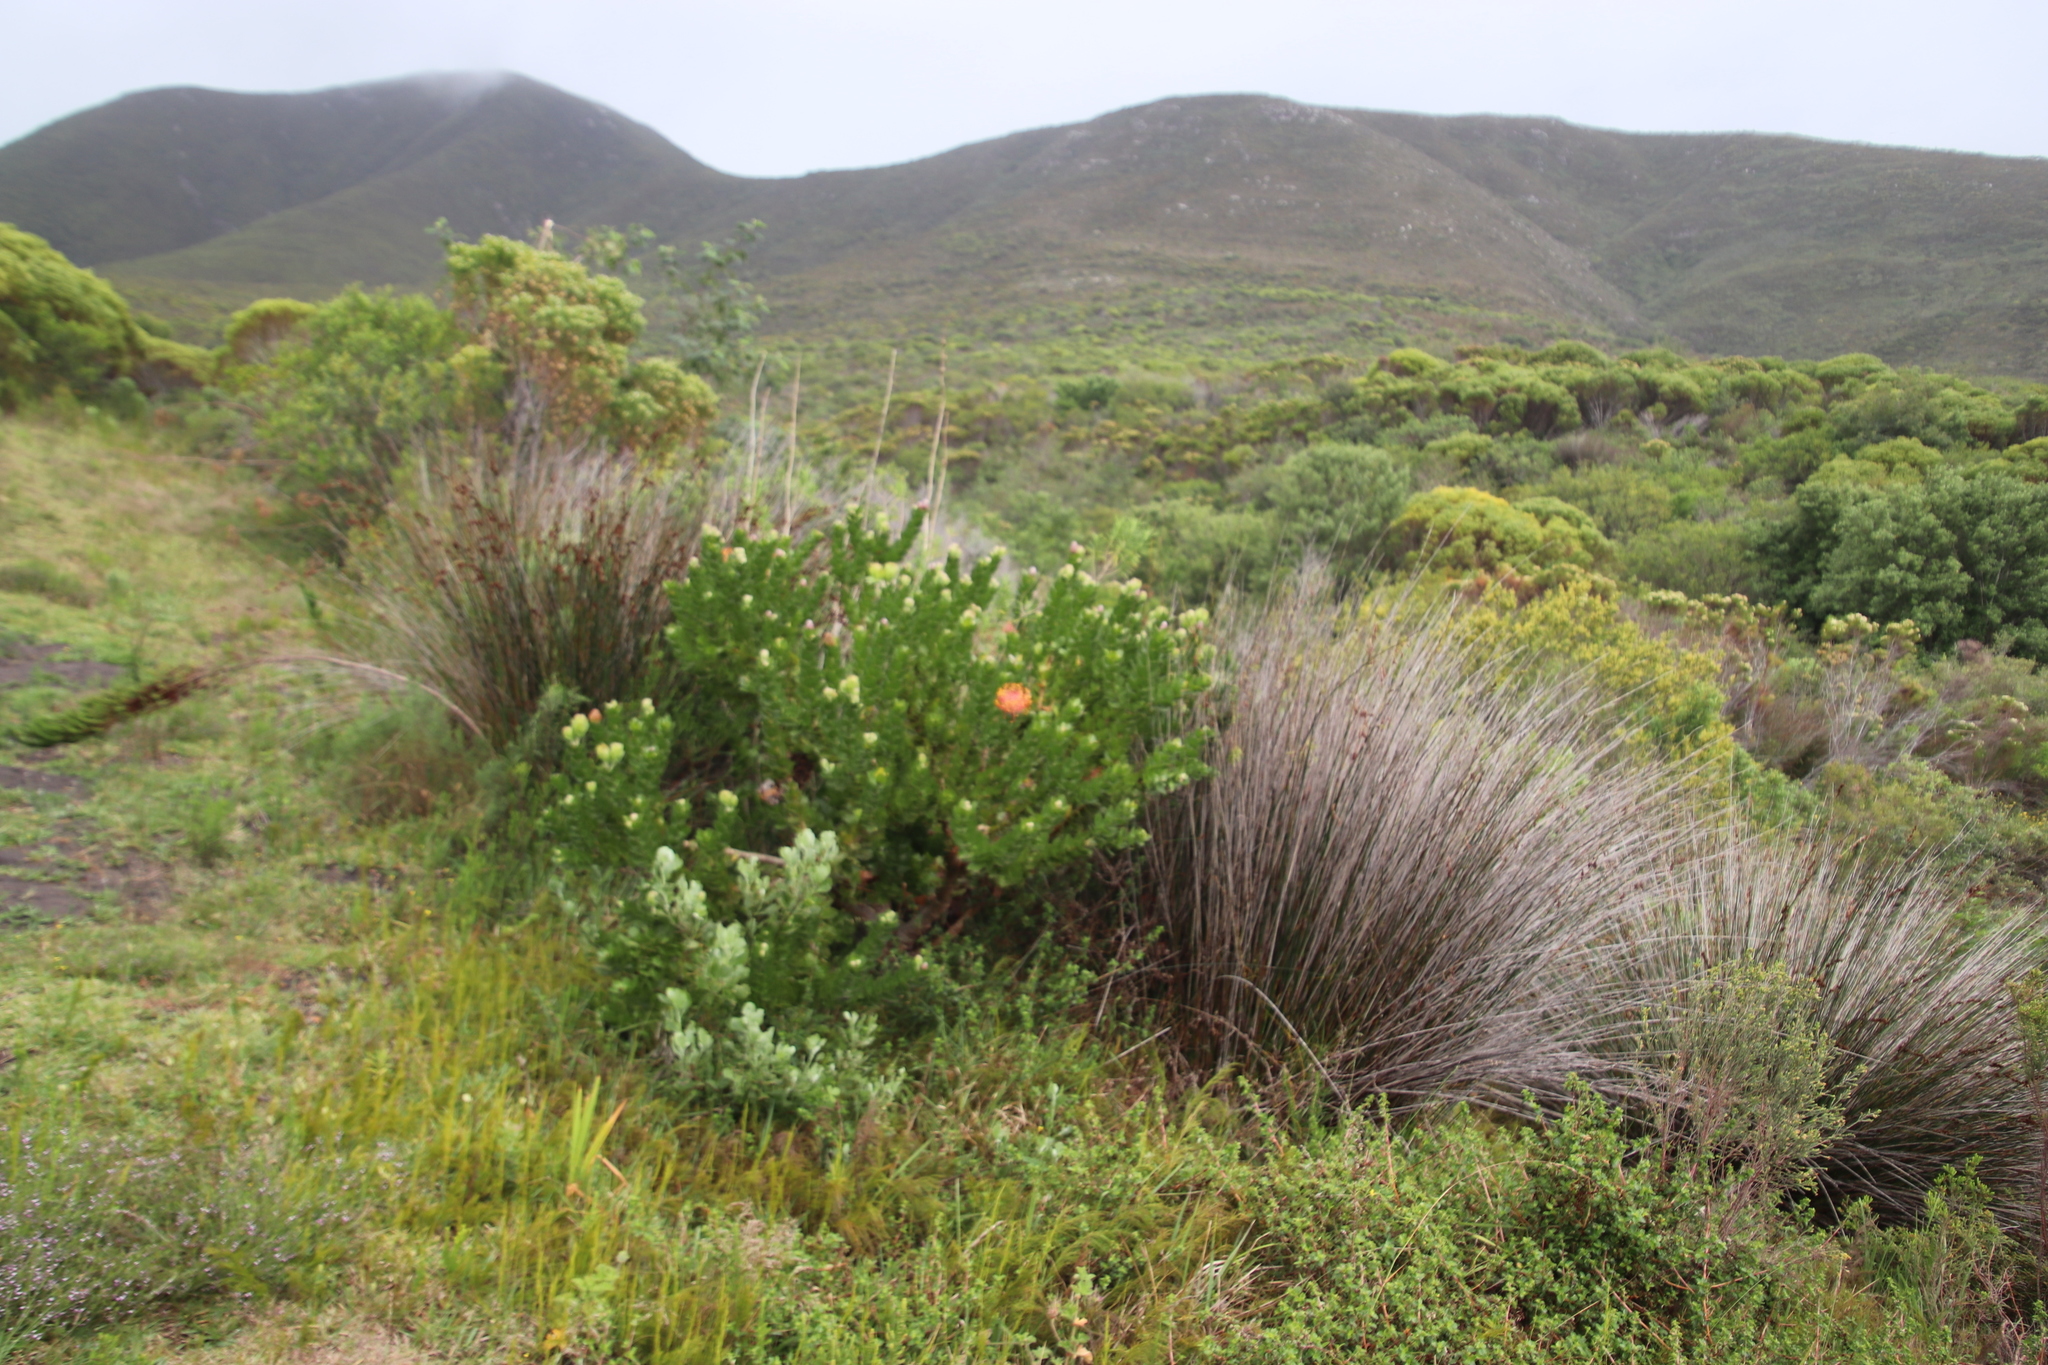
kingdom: Plantae
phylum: Tracheophyta
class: Magnoliopsida
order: Proteales
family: Proteaceae
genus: Leucospermum
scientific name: Leucospermum patersonii
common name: False tree pincushion
